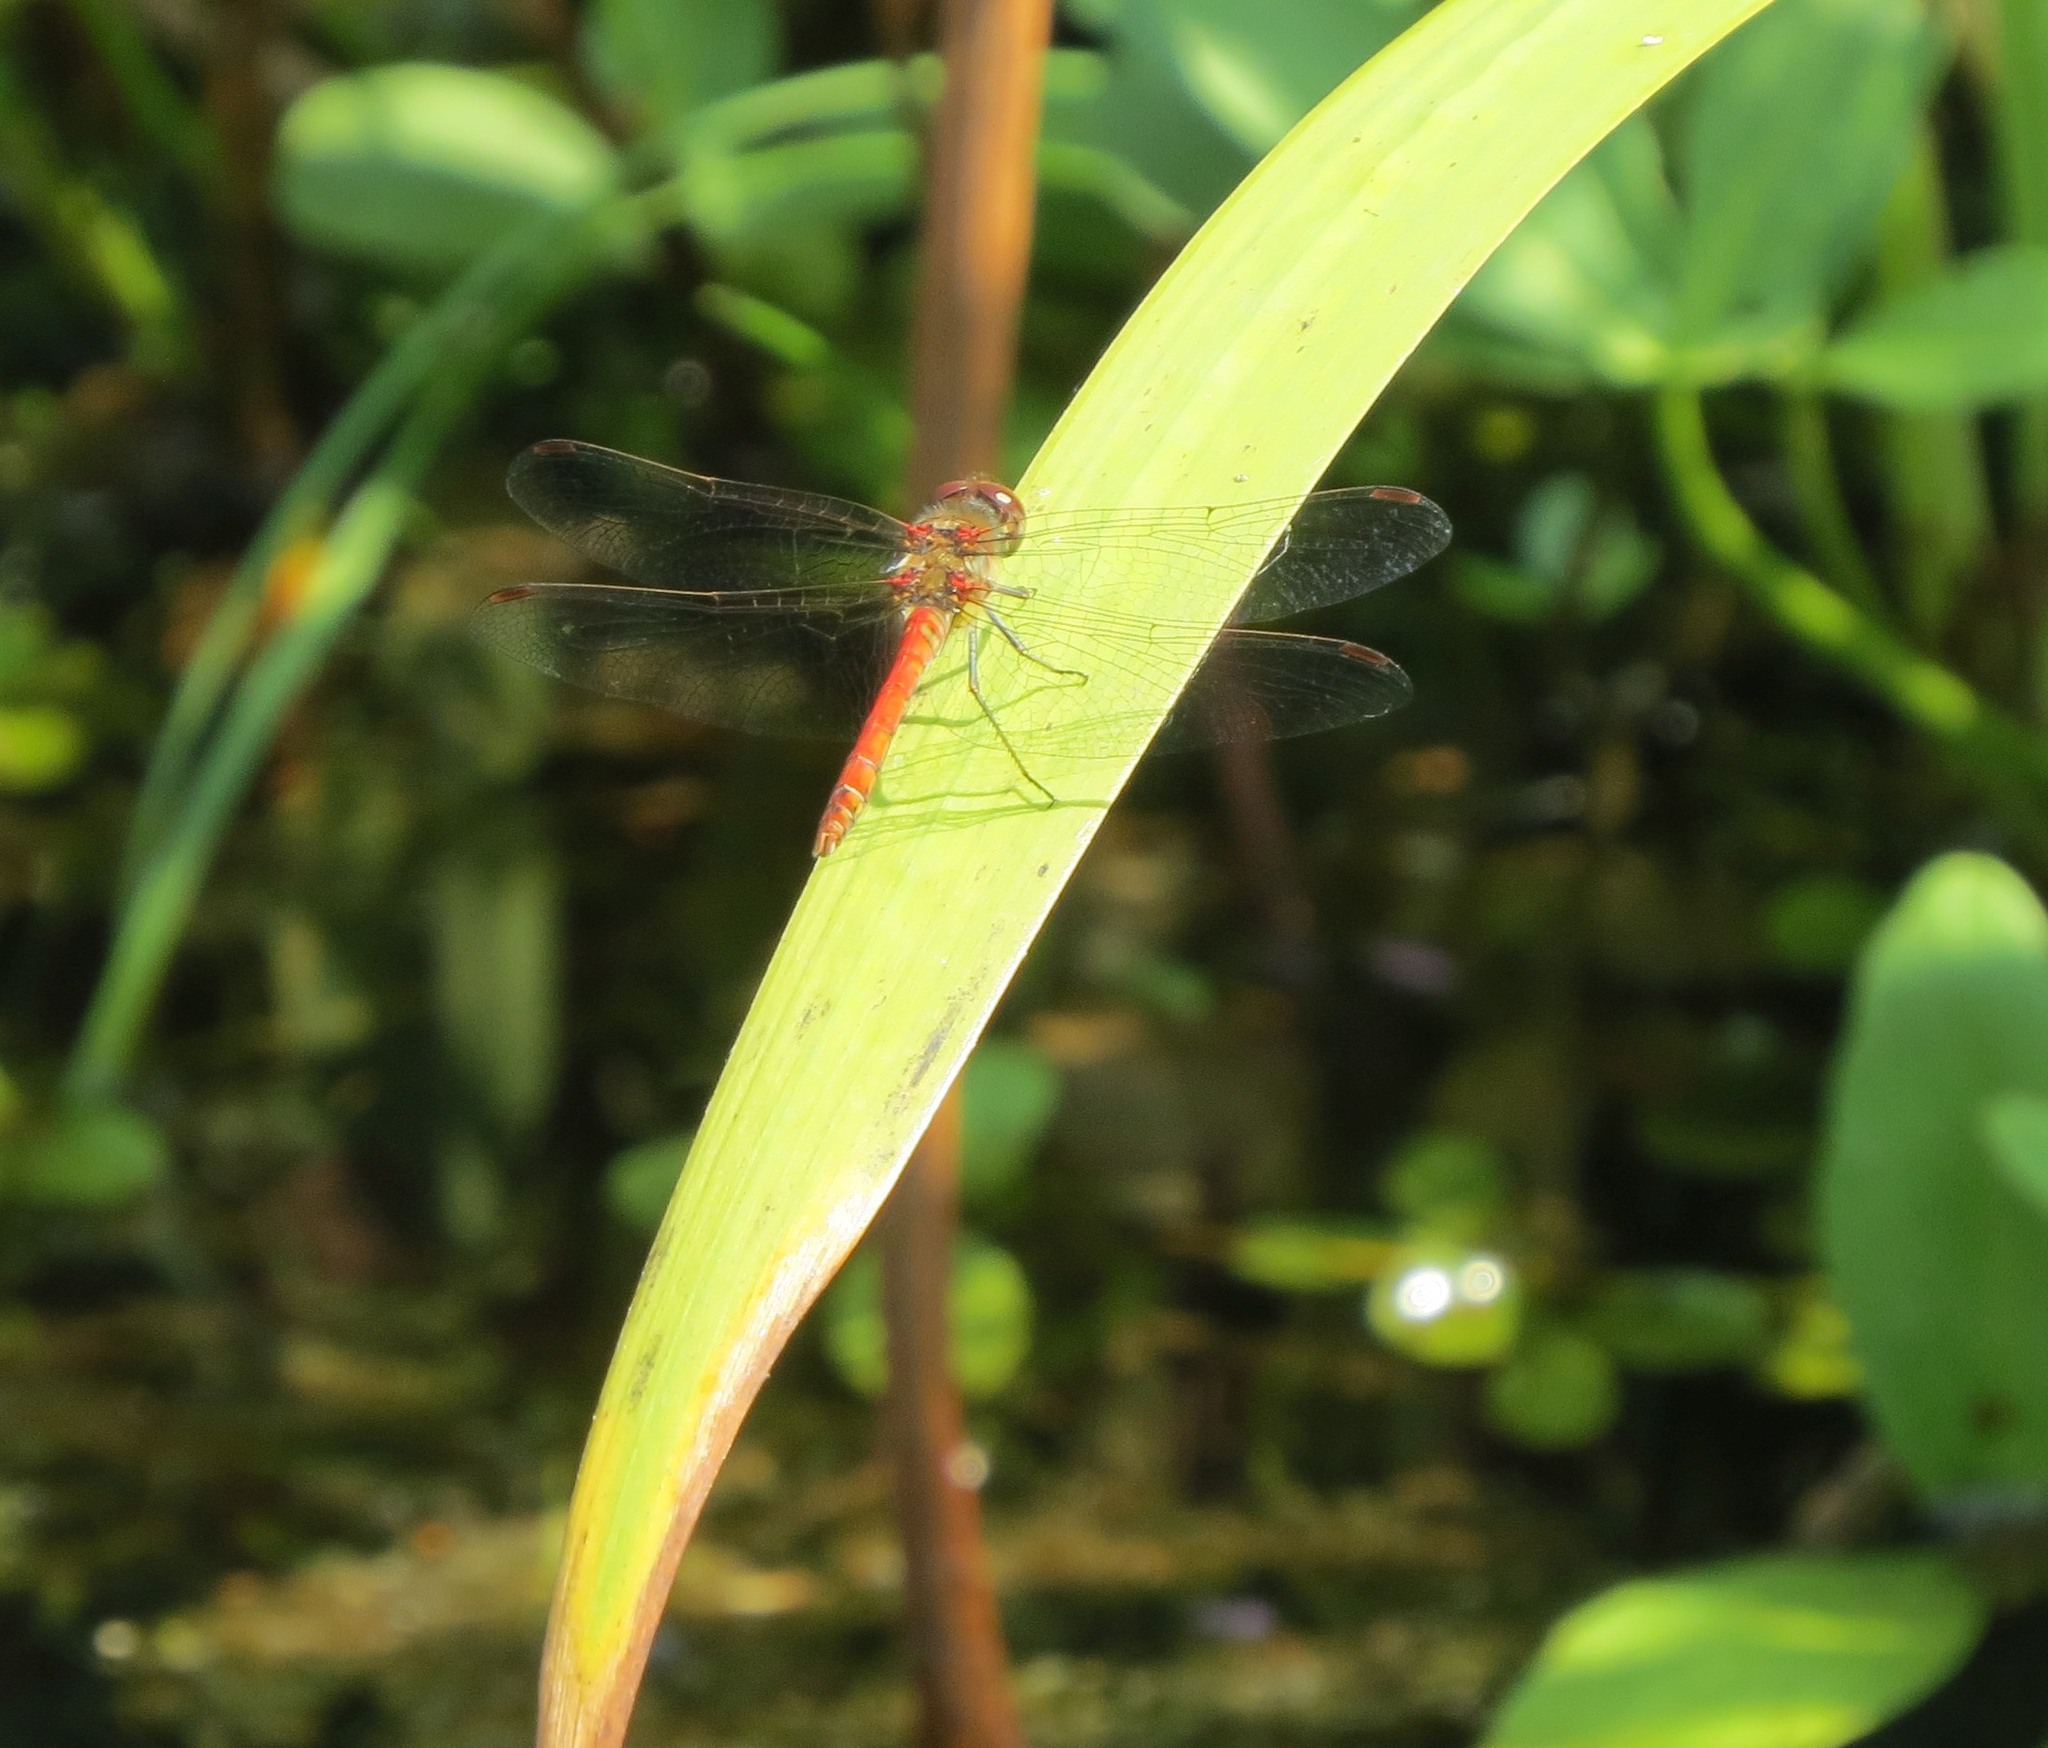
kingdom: Animalia
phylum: Arthropoda
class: Insecta
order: Odonata
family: Libellulidae
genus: Sympetrum
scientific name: Sympetrum striolatum
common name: Common darter
